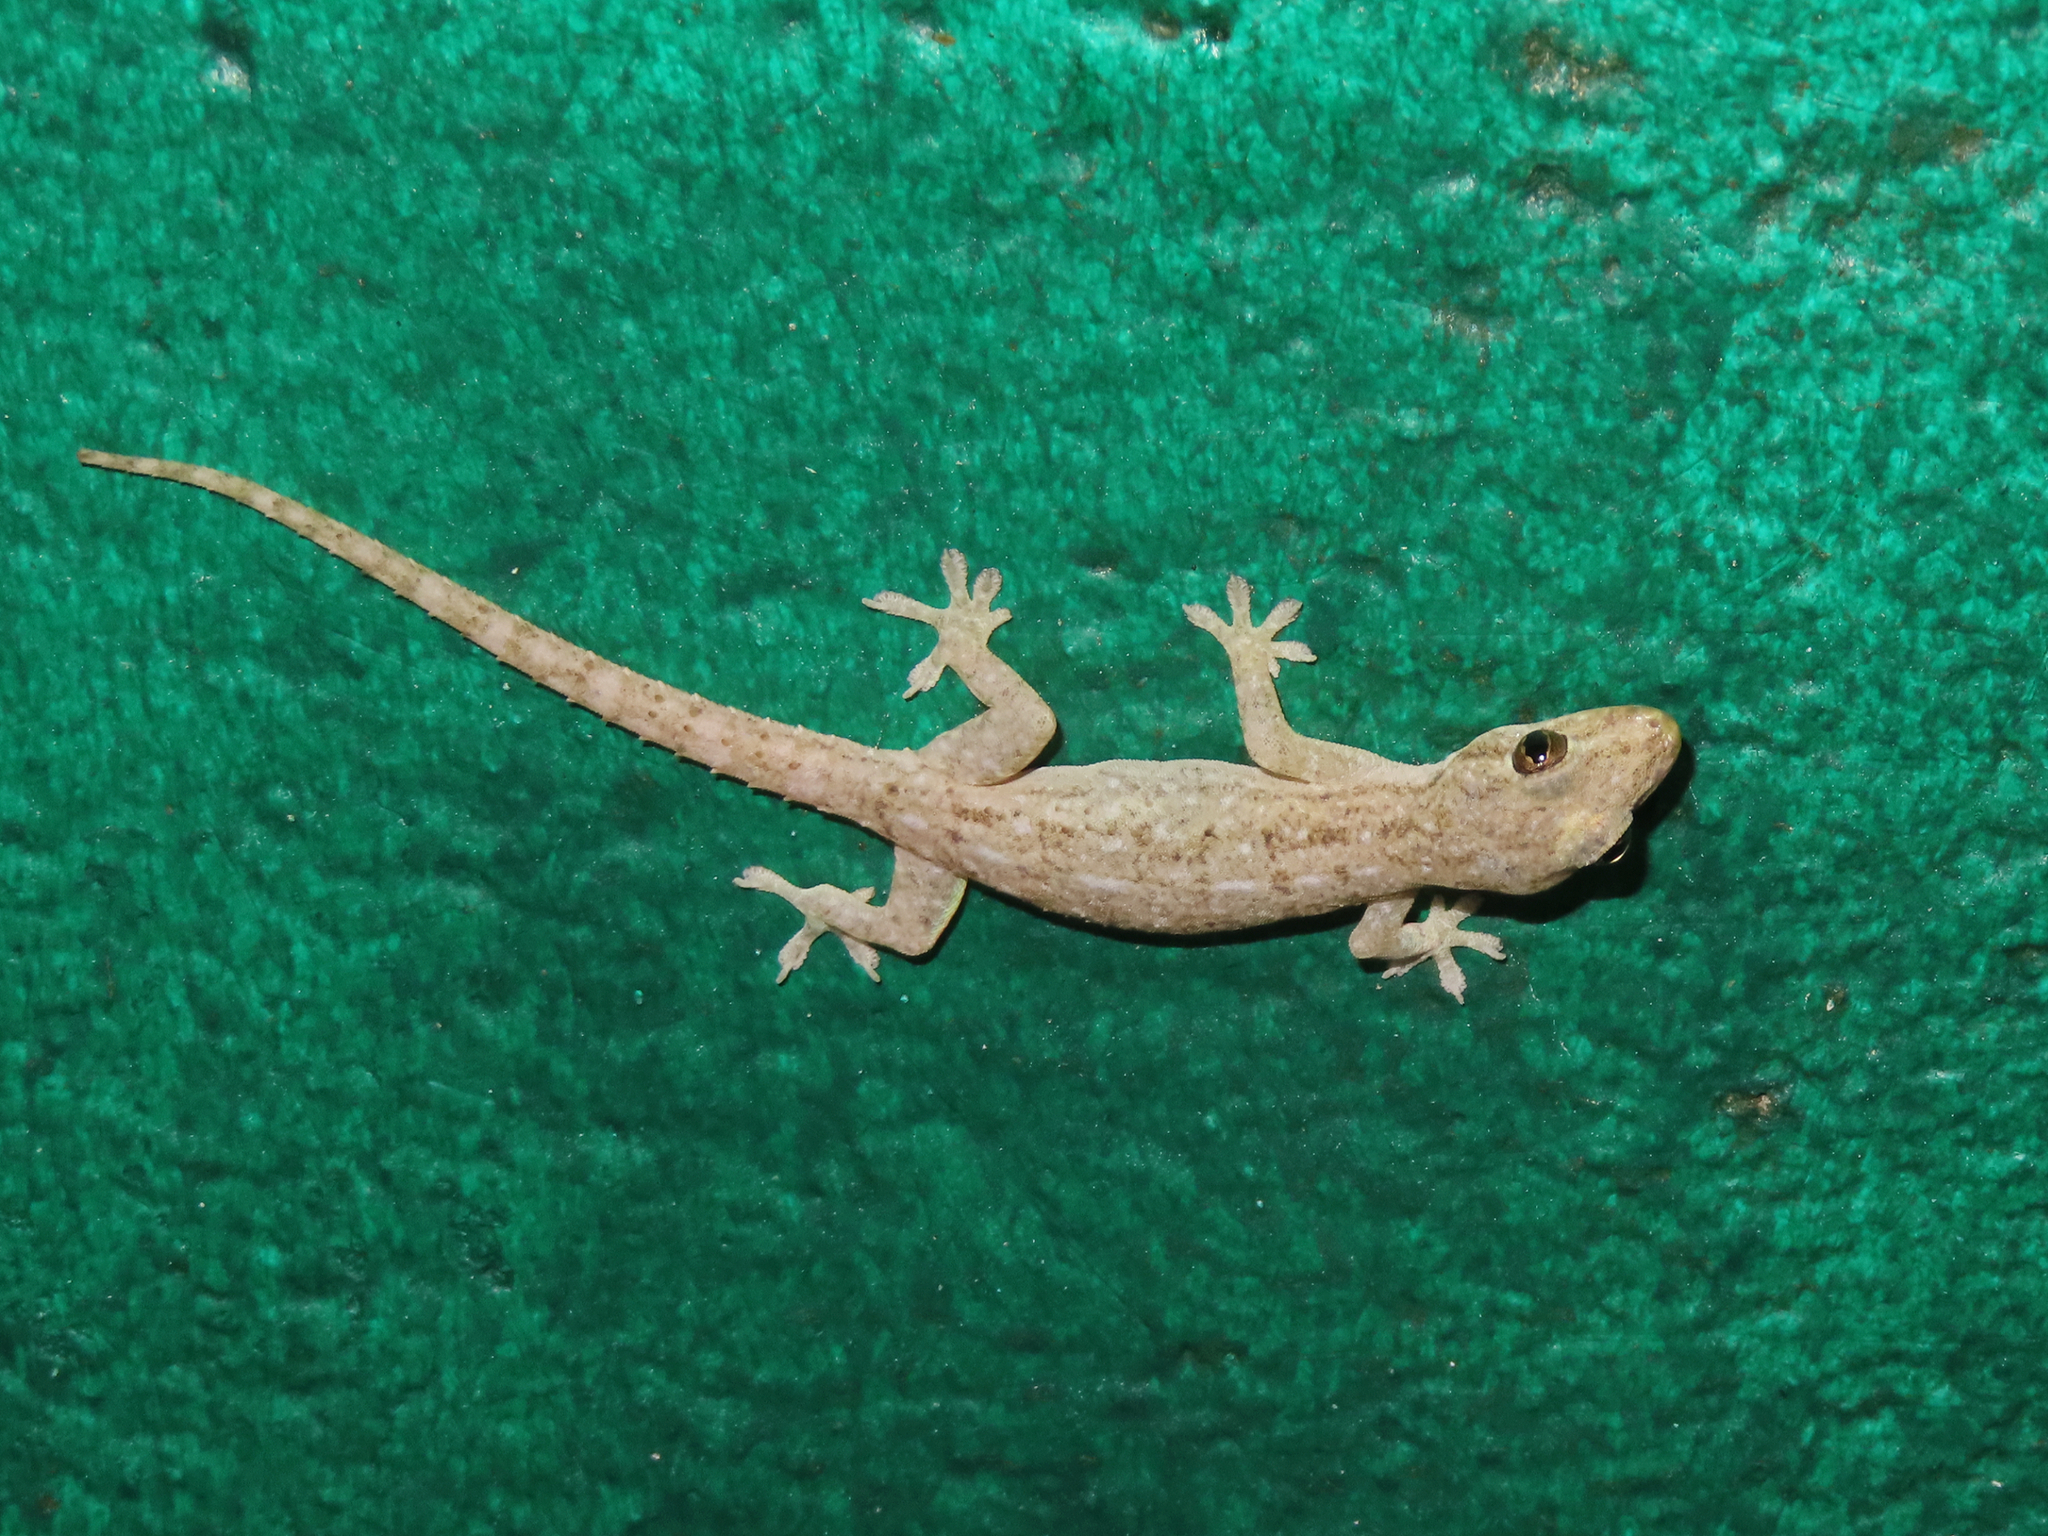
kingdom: Animalia
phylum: Chordata
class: Squamata
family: Gekkonidae
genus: Hemidactylus
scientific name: Hemidactylus frenatus
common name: Common house gecko
